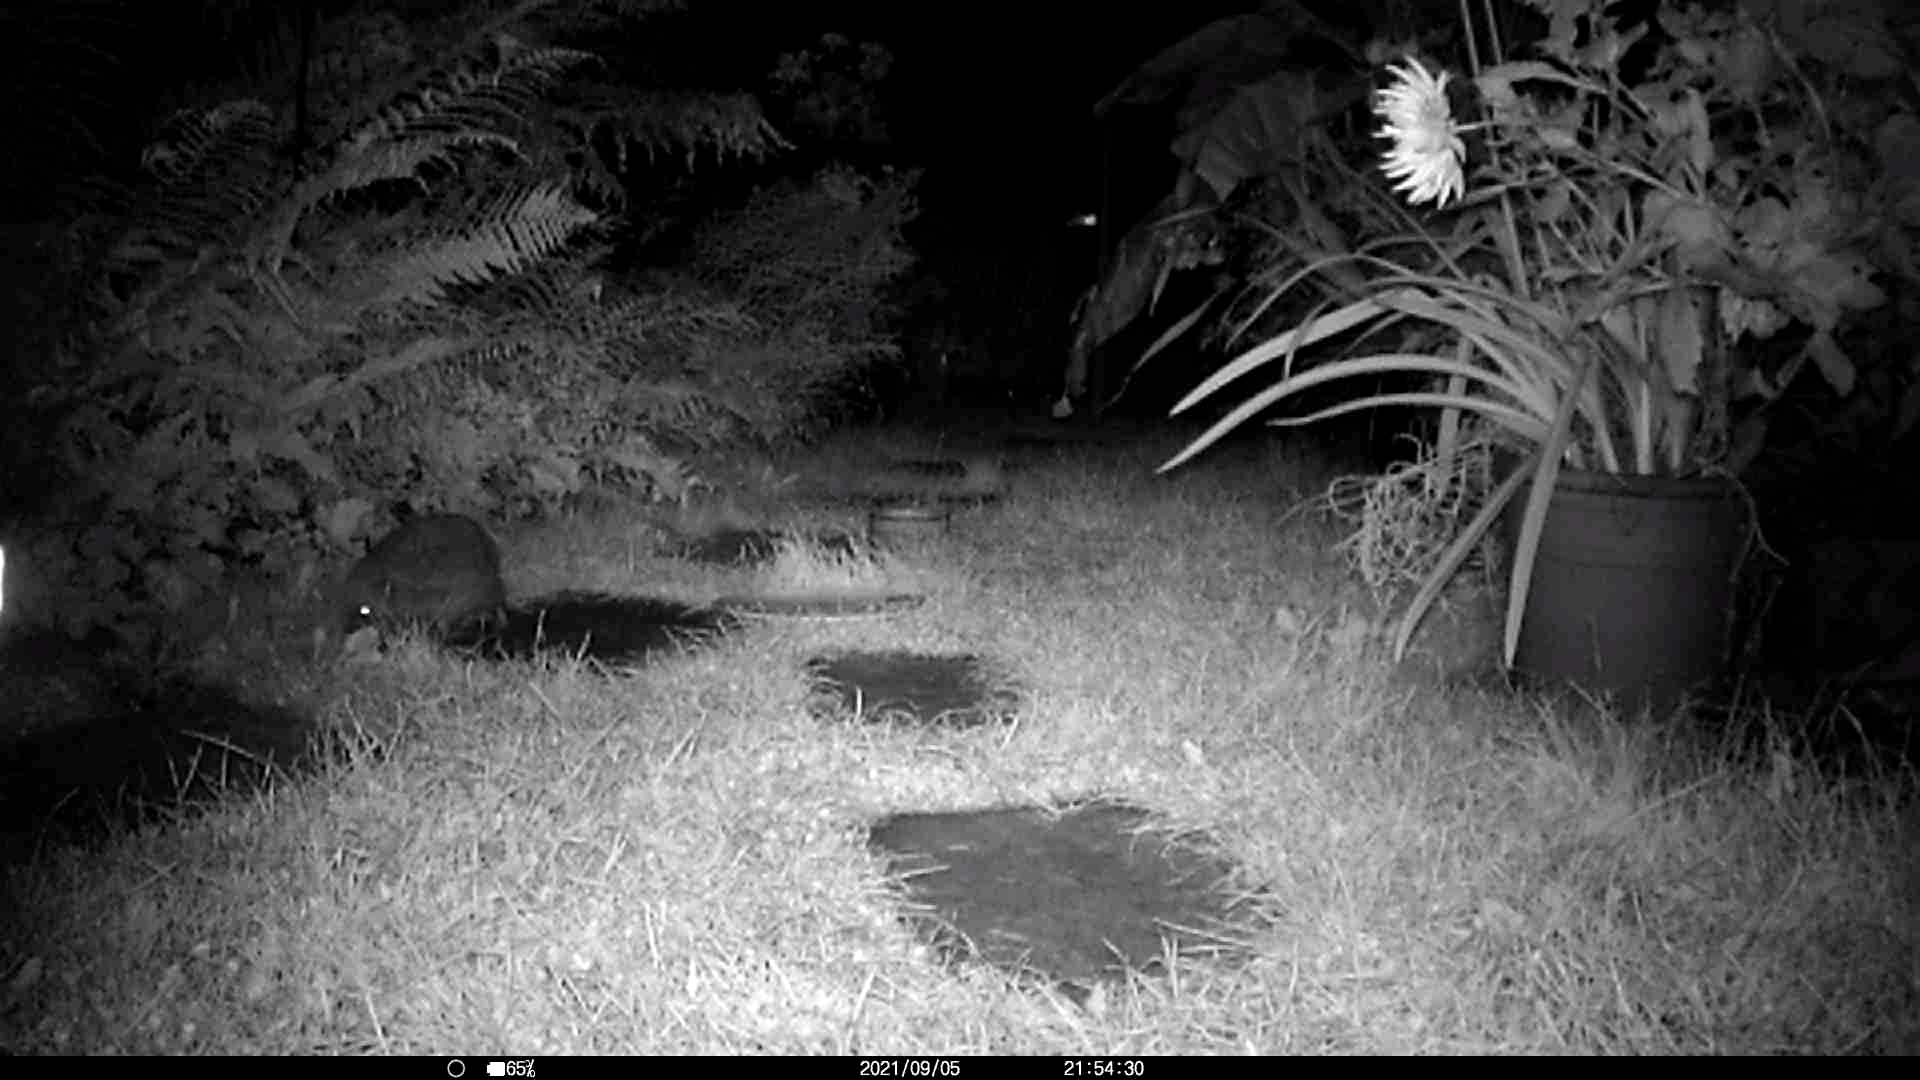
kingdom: Animalia
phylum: Chordata
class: Mammalia
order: Erinaceomorpha
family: Erinaceidae
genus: Erinaceus
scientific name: Erinaceus europaeus
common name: West european hedgehog
